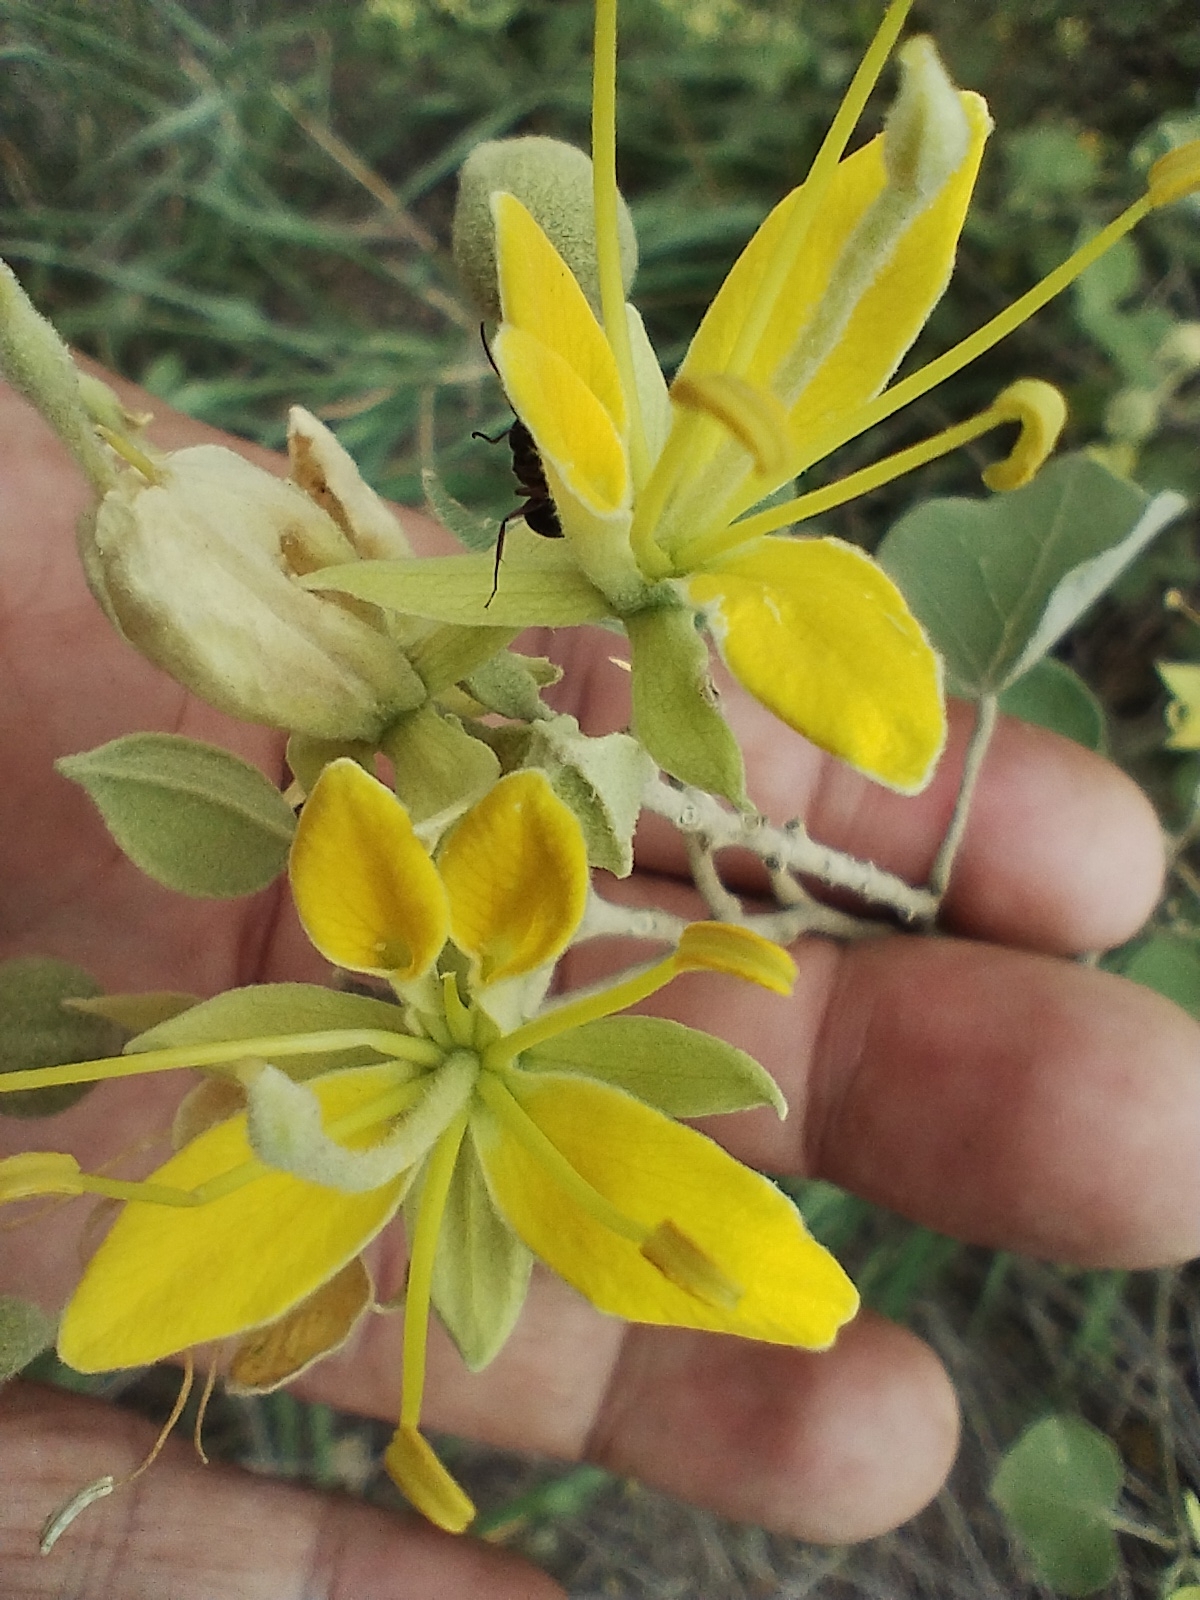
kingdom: Plantae
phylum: Tracheophyta
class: Magnoliopsida
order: Brassicales
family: Capparaceae
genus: Capparicordis
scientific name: Capparicordis tweedieana
